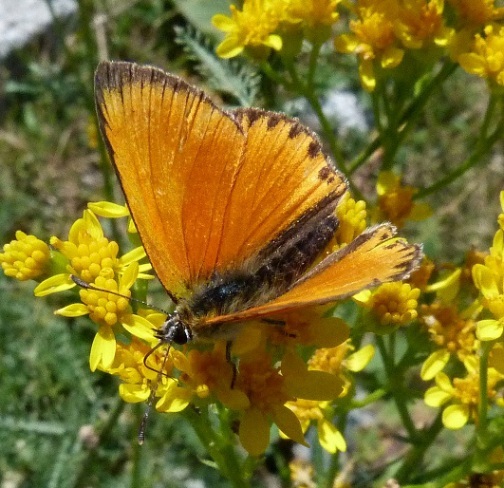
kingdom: Animalia
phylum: Arthropoda
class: Insecta
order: Lepidoptera
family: Lycaenidae
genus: Lycaena
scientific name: Lycaena virgaureae
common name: Scarce copper
